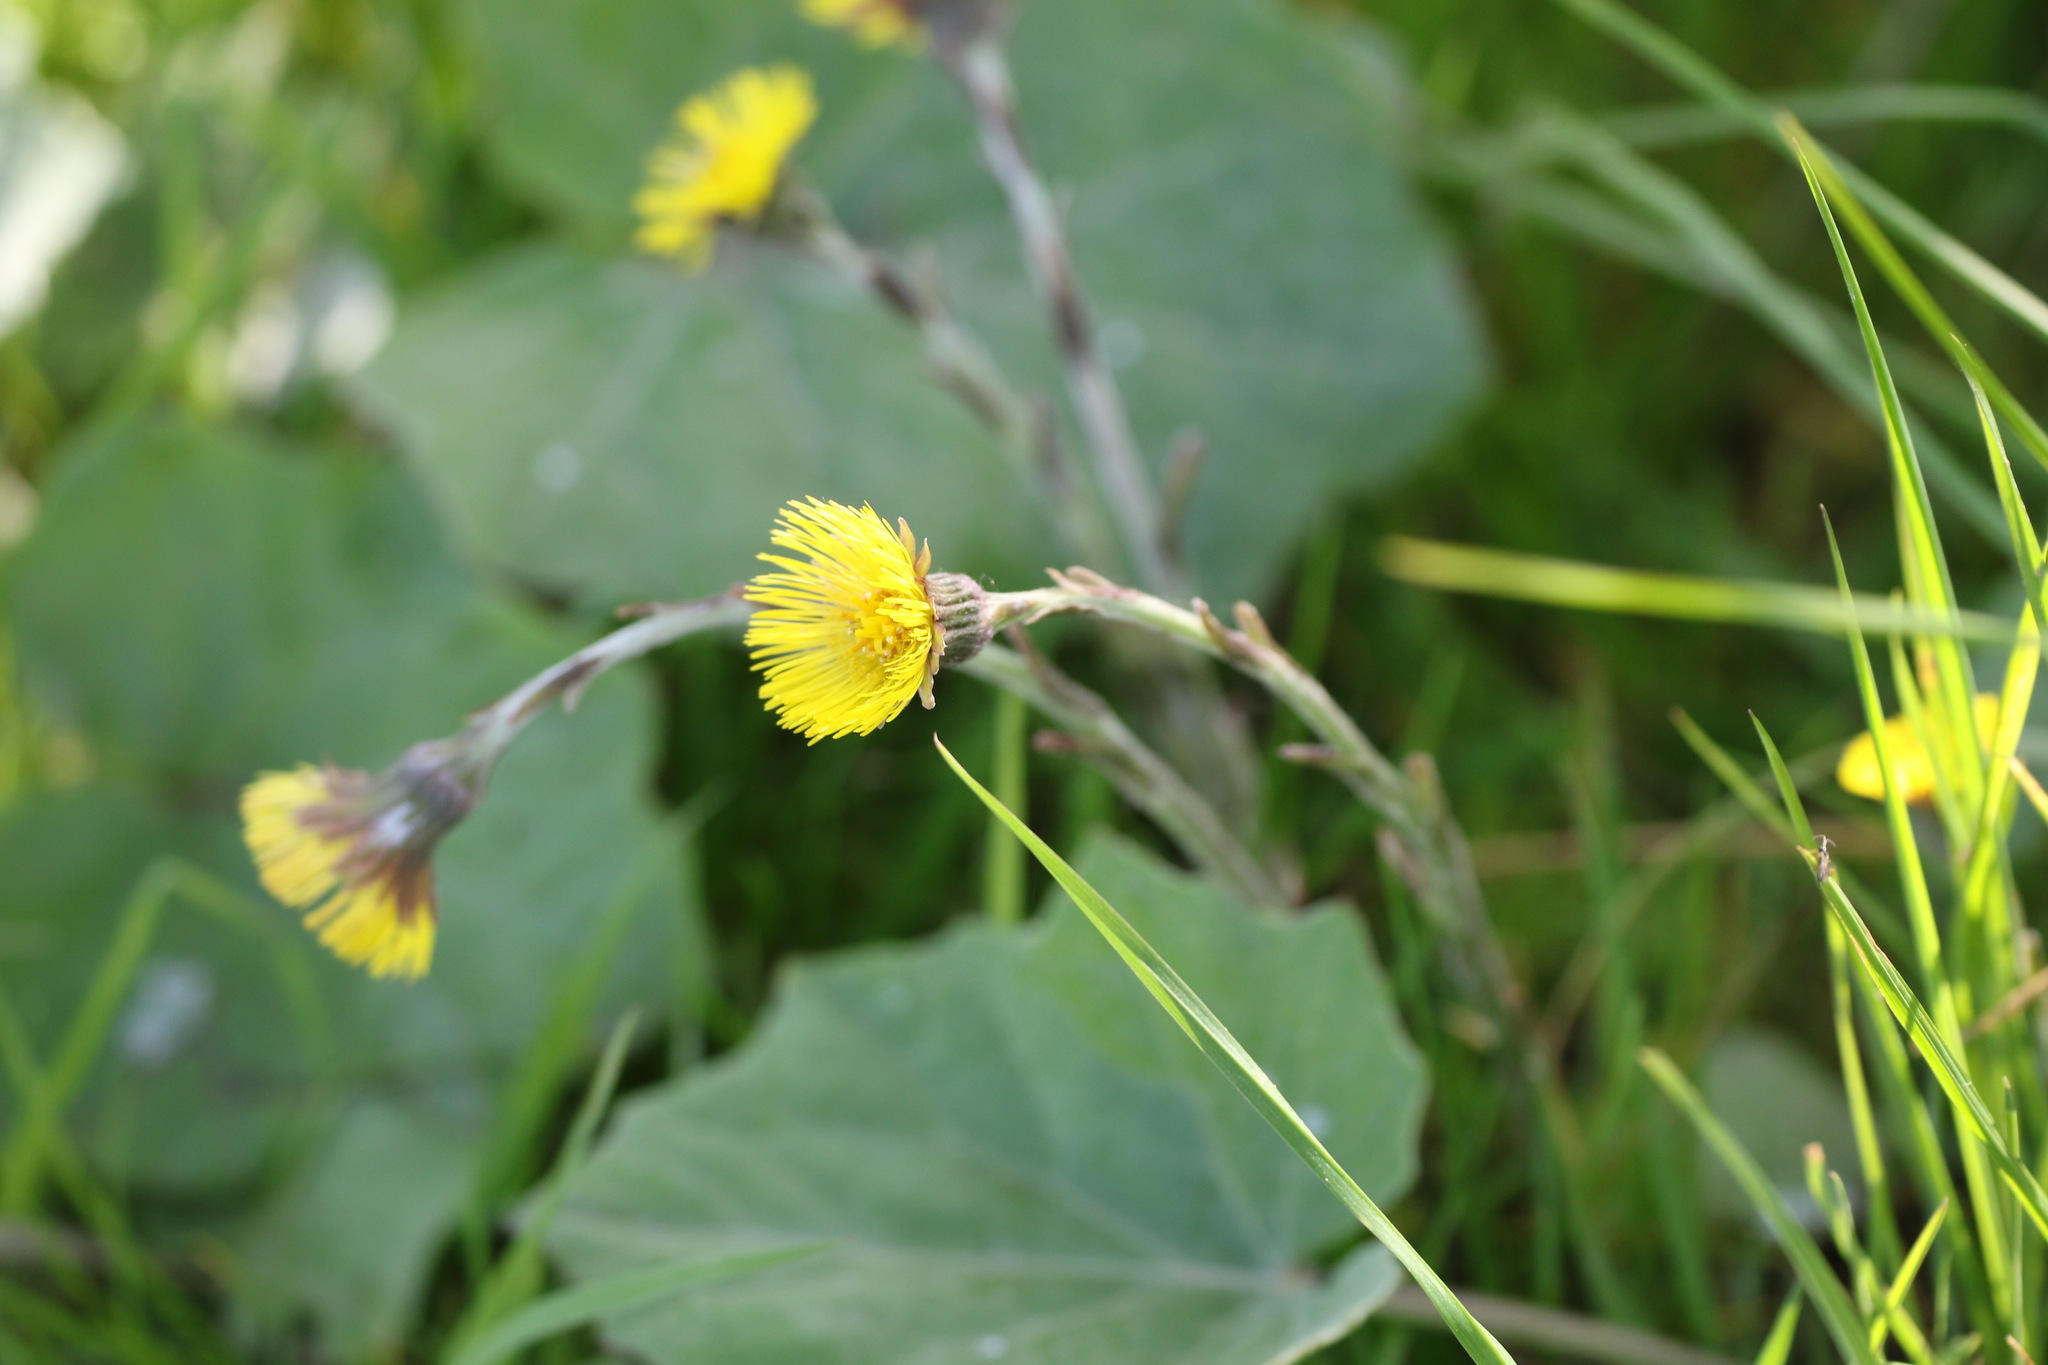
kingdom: Plantae
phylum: Tracheophyta
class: Magnoliopsida
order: Asterales
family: Asteraceae
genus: Tussilago
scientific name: Tussilago farfara
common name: Coltsfoot
